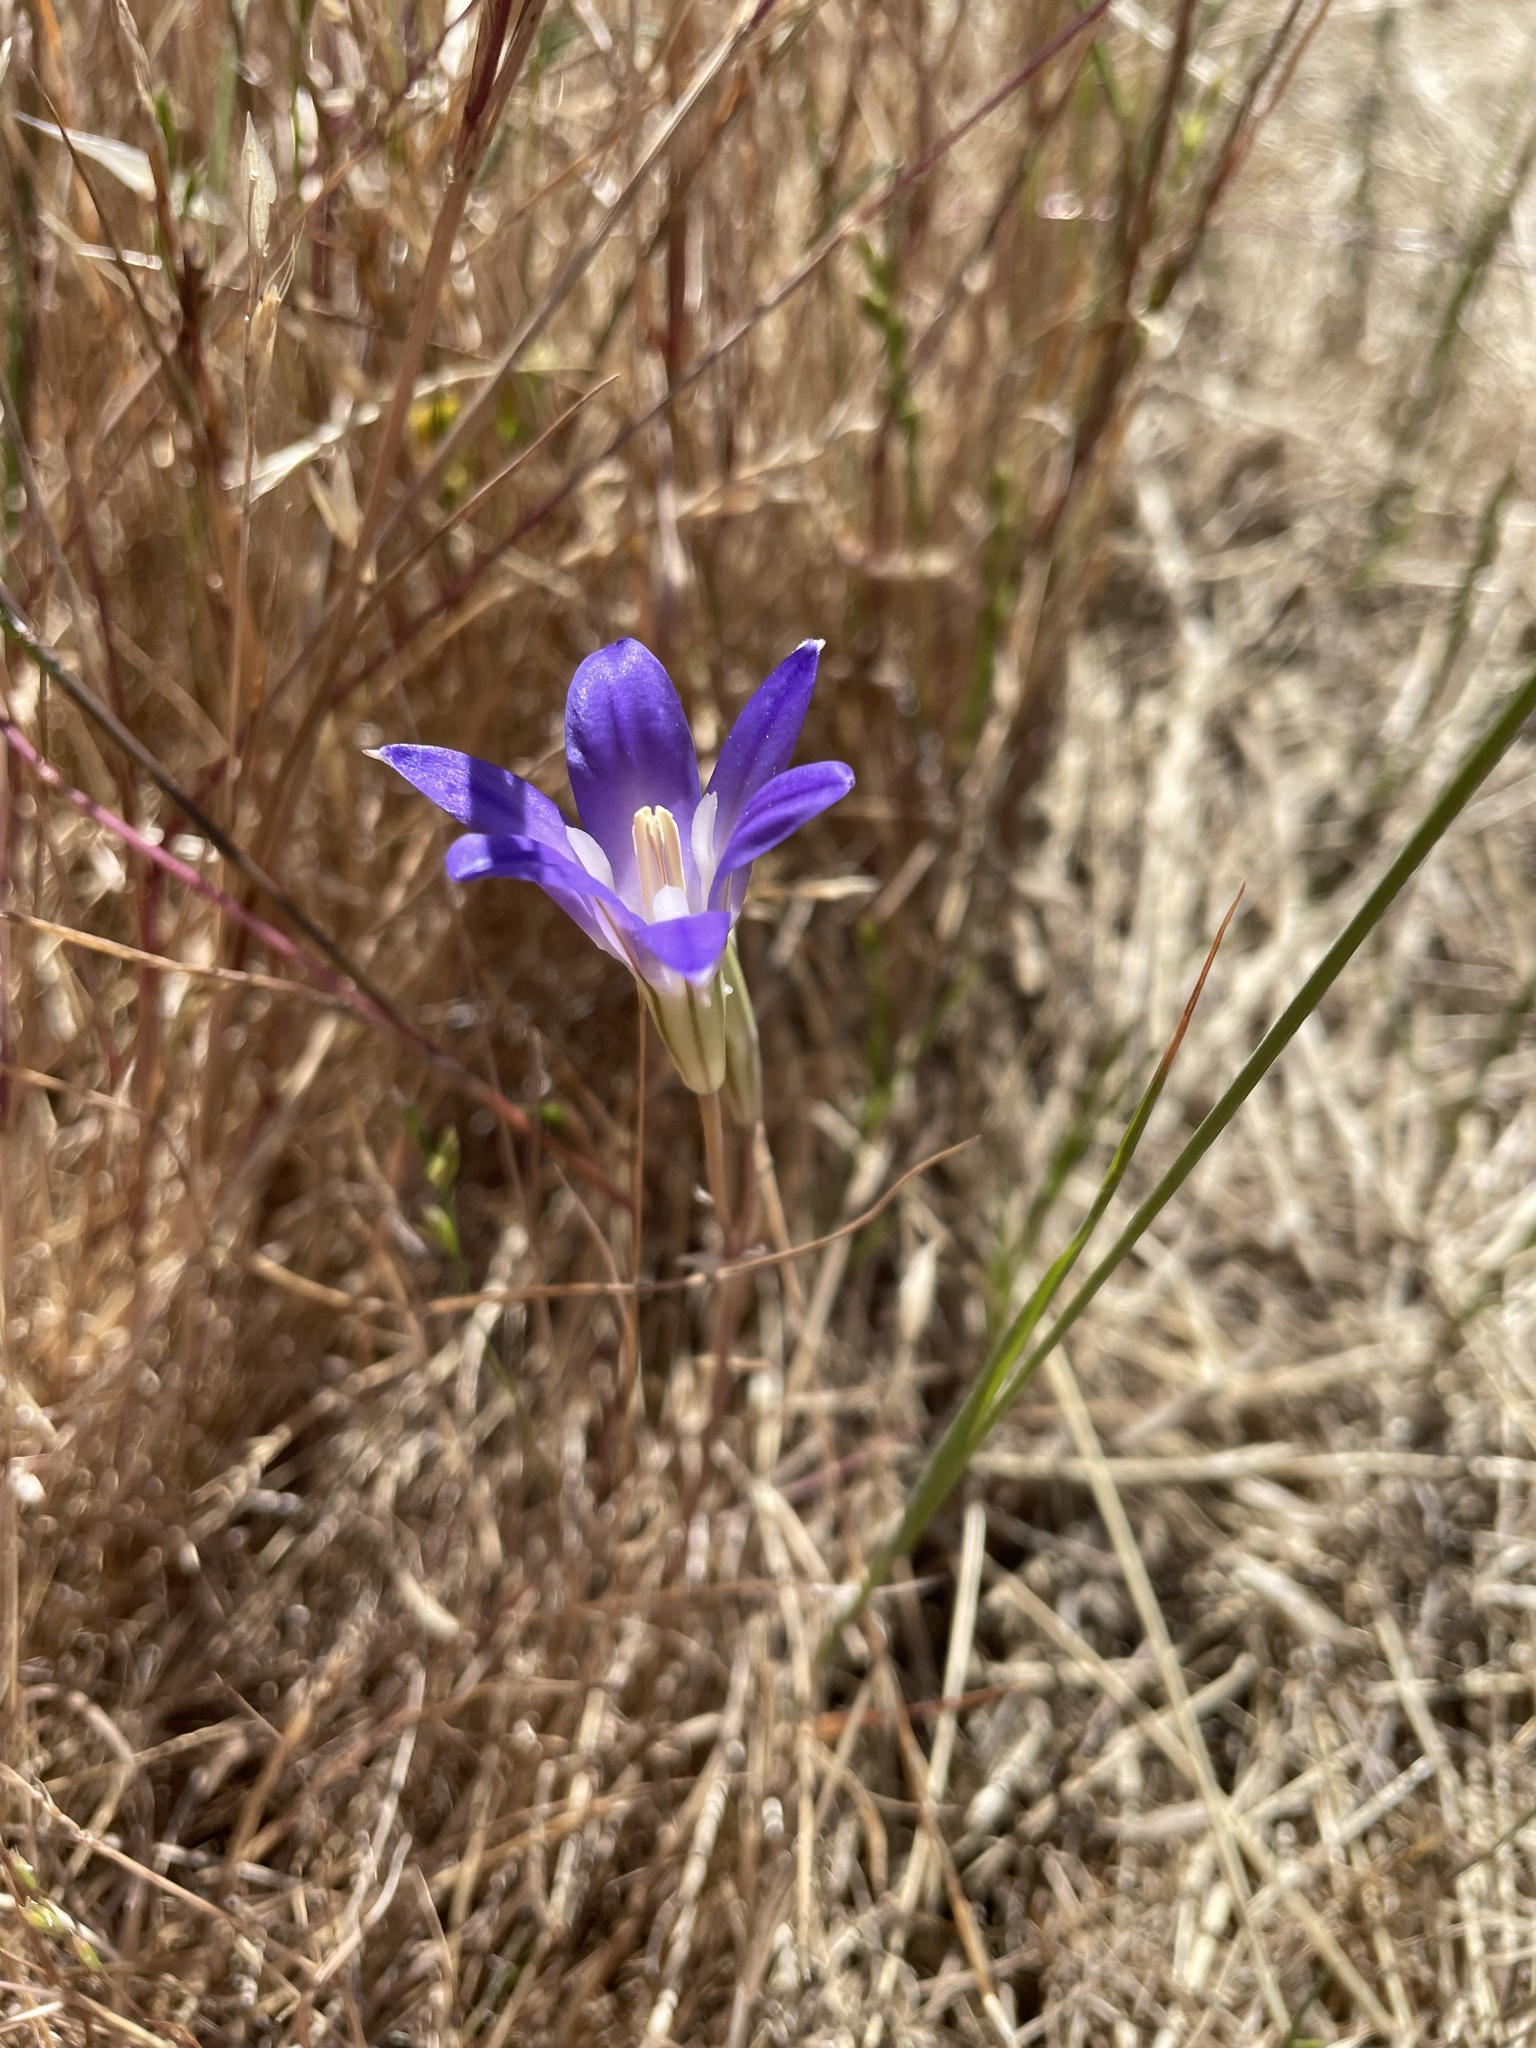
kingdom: Plantae
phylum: Tracheophyta
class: Liliopsida
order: Asparagales
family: Asparagaceae
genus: Brodiaea
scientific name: Brodiaea elegans
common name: Elegant cluster-lily
